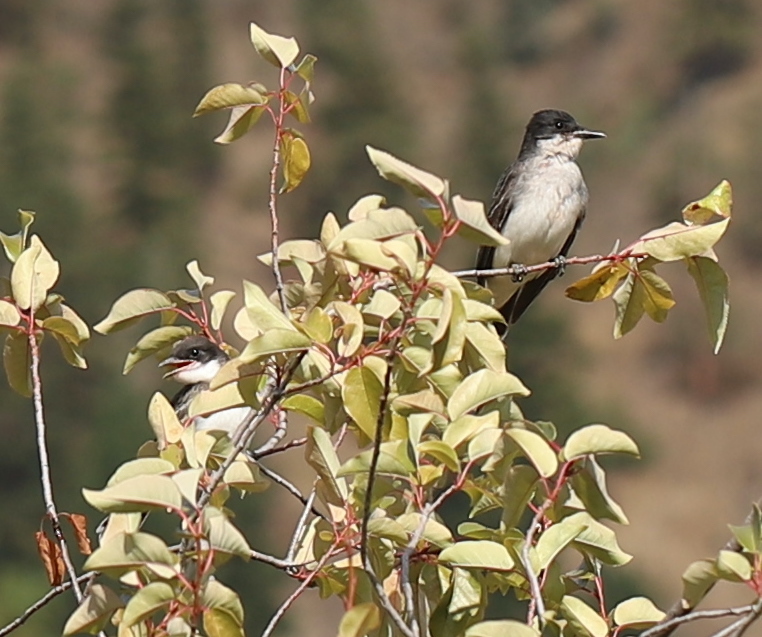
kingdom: Animalia
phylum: Chordata
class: Aves
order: Passeriformes
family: Tyrannidae
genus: Tyrannus
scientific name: Tyrannus tyrannus
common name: Eastern kingbird
